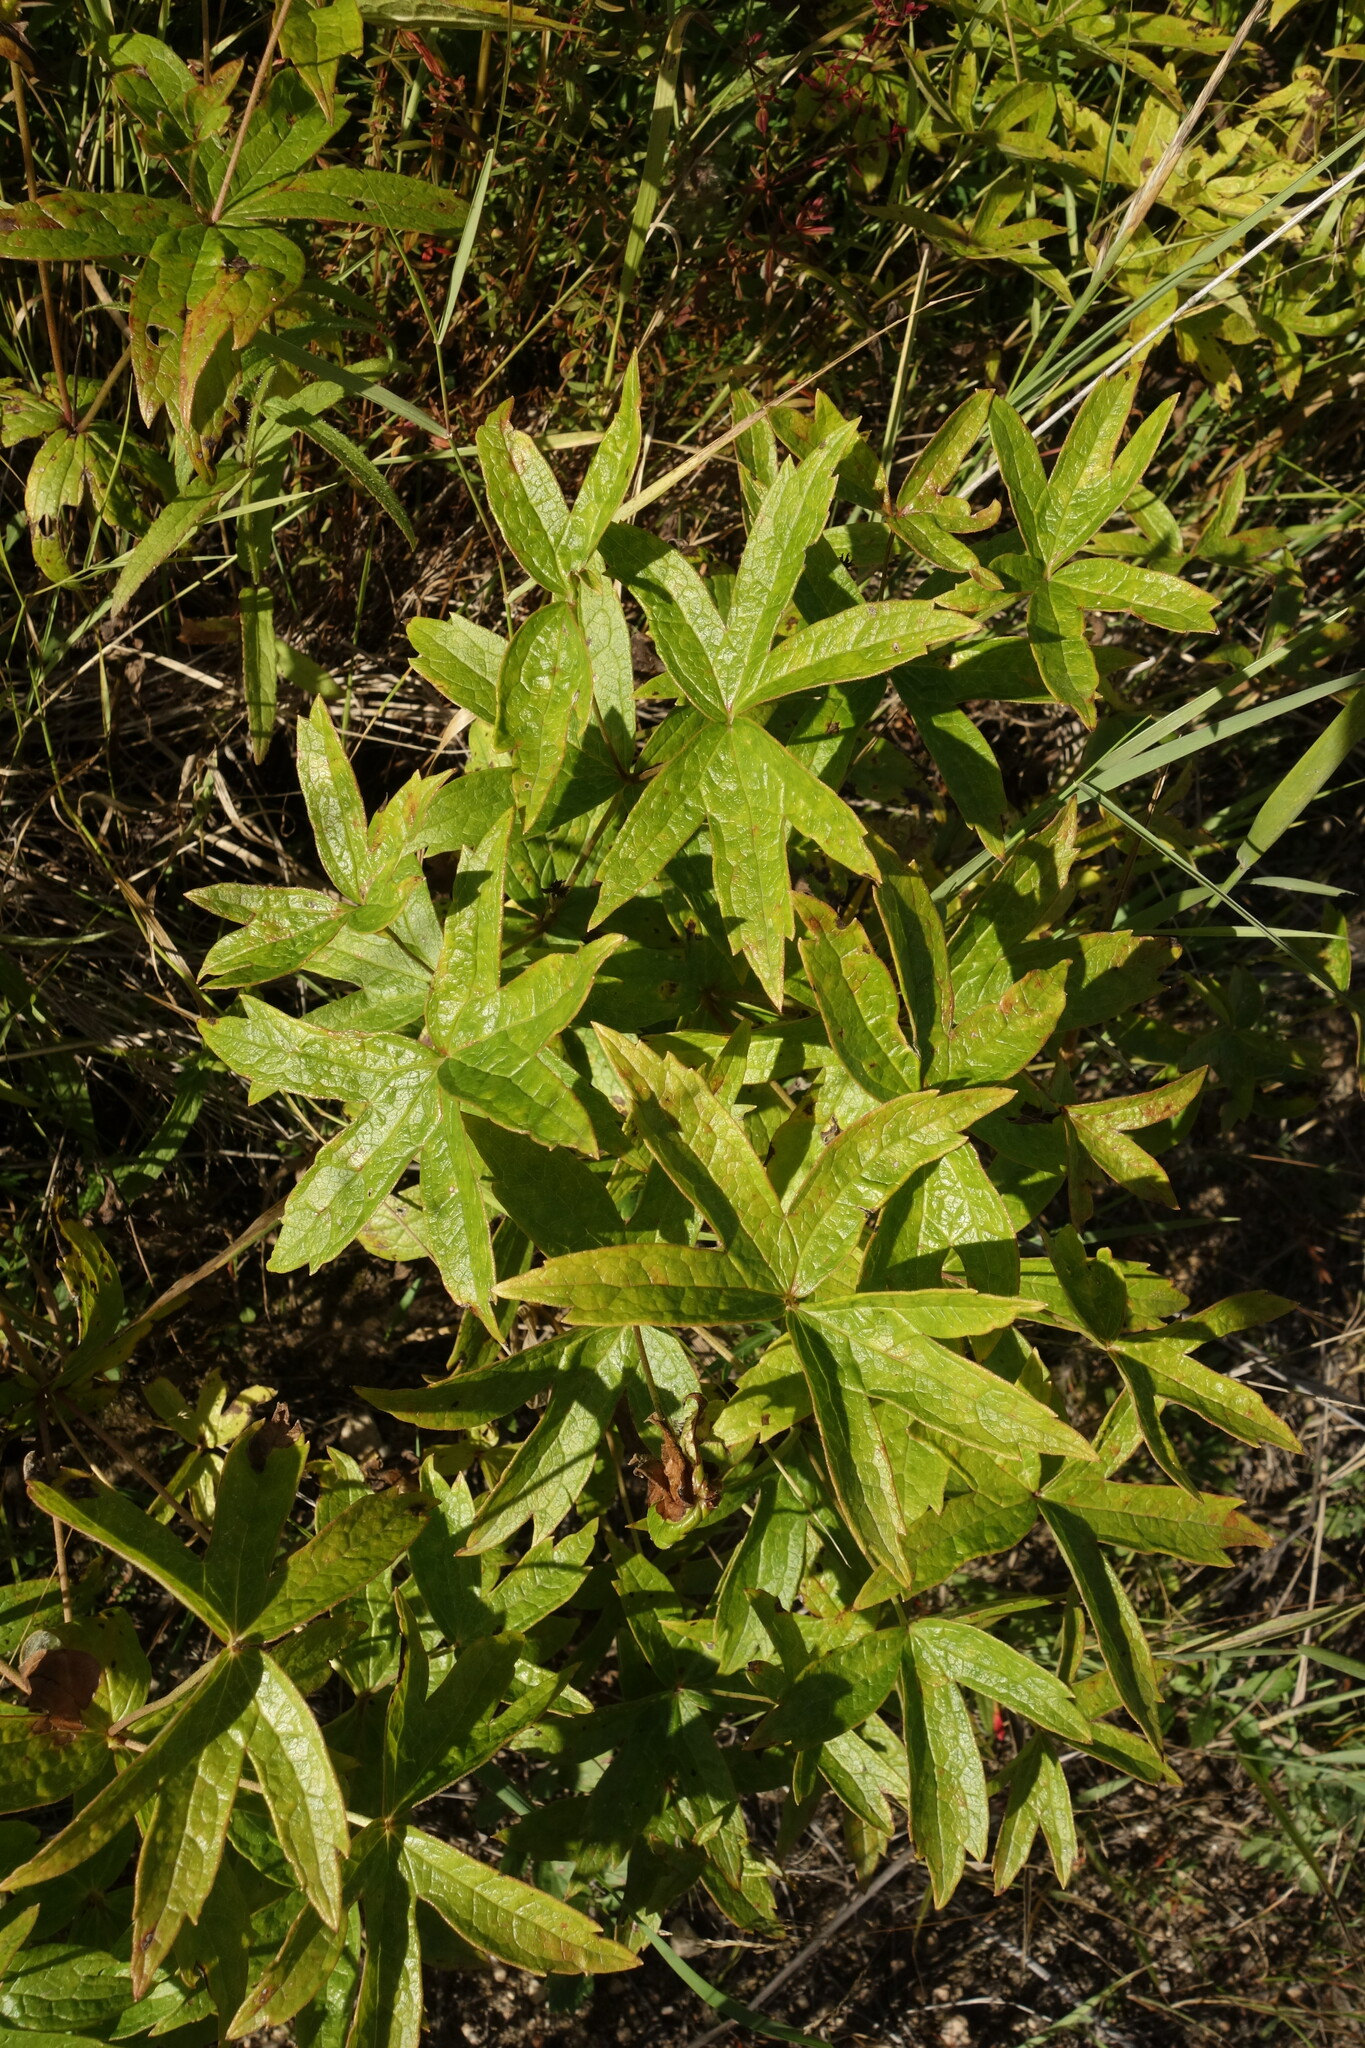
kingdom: Plantae
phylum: Tracheophyta
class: Magnoliopsida
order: Ranunculales
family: Ranunculaceae
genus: Anemonastrum
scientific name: Anemonastrum dichotomum
